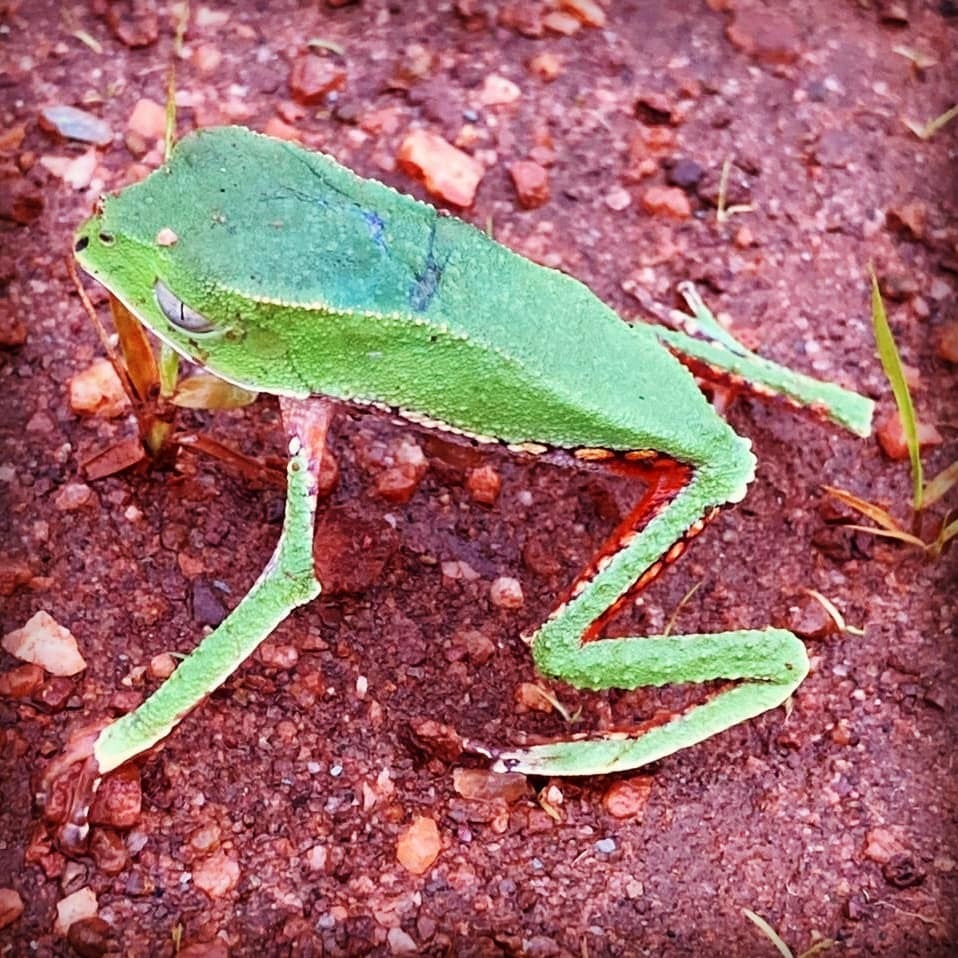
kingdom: Animalia
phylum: Chordata
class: Amphibia
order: Anura
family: Phyllomedusidae
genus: Phyllomedusa
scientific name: Phyllomedusa vaillantii
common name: White-lined leaf frog
